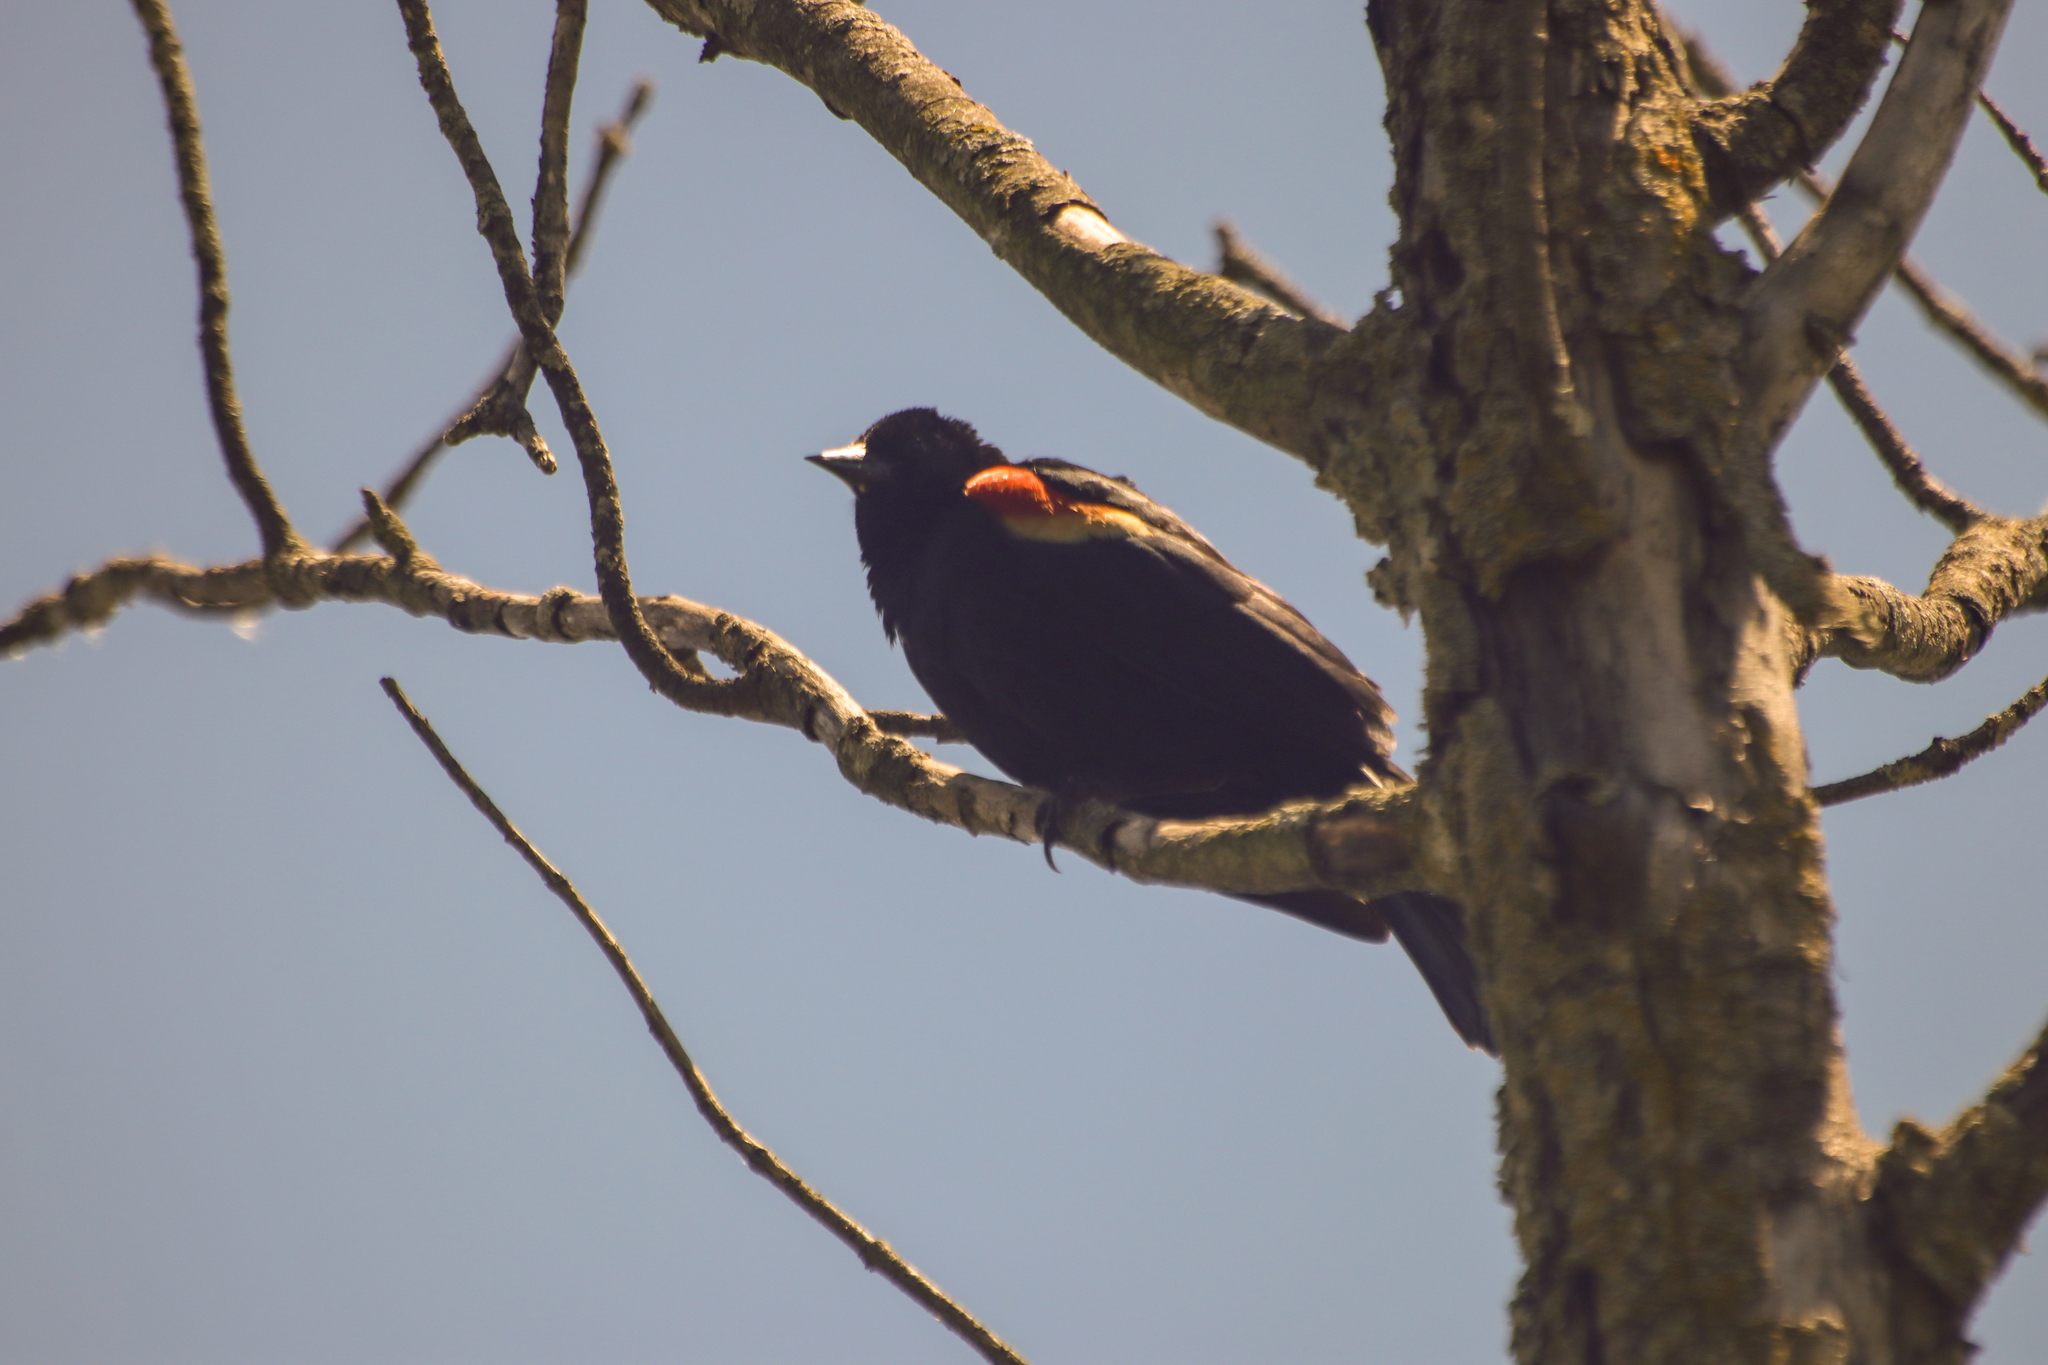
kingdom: Animalia
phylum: Chordata
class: Aves
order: Passeriformes
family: Icteridae
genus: Agelaius
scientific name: Agelaius phoeniceus
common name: Red-winged blackbird
